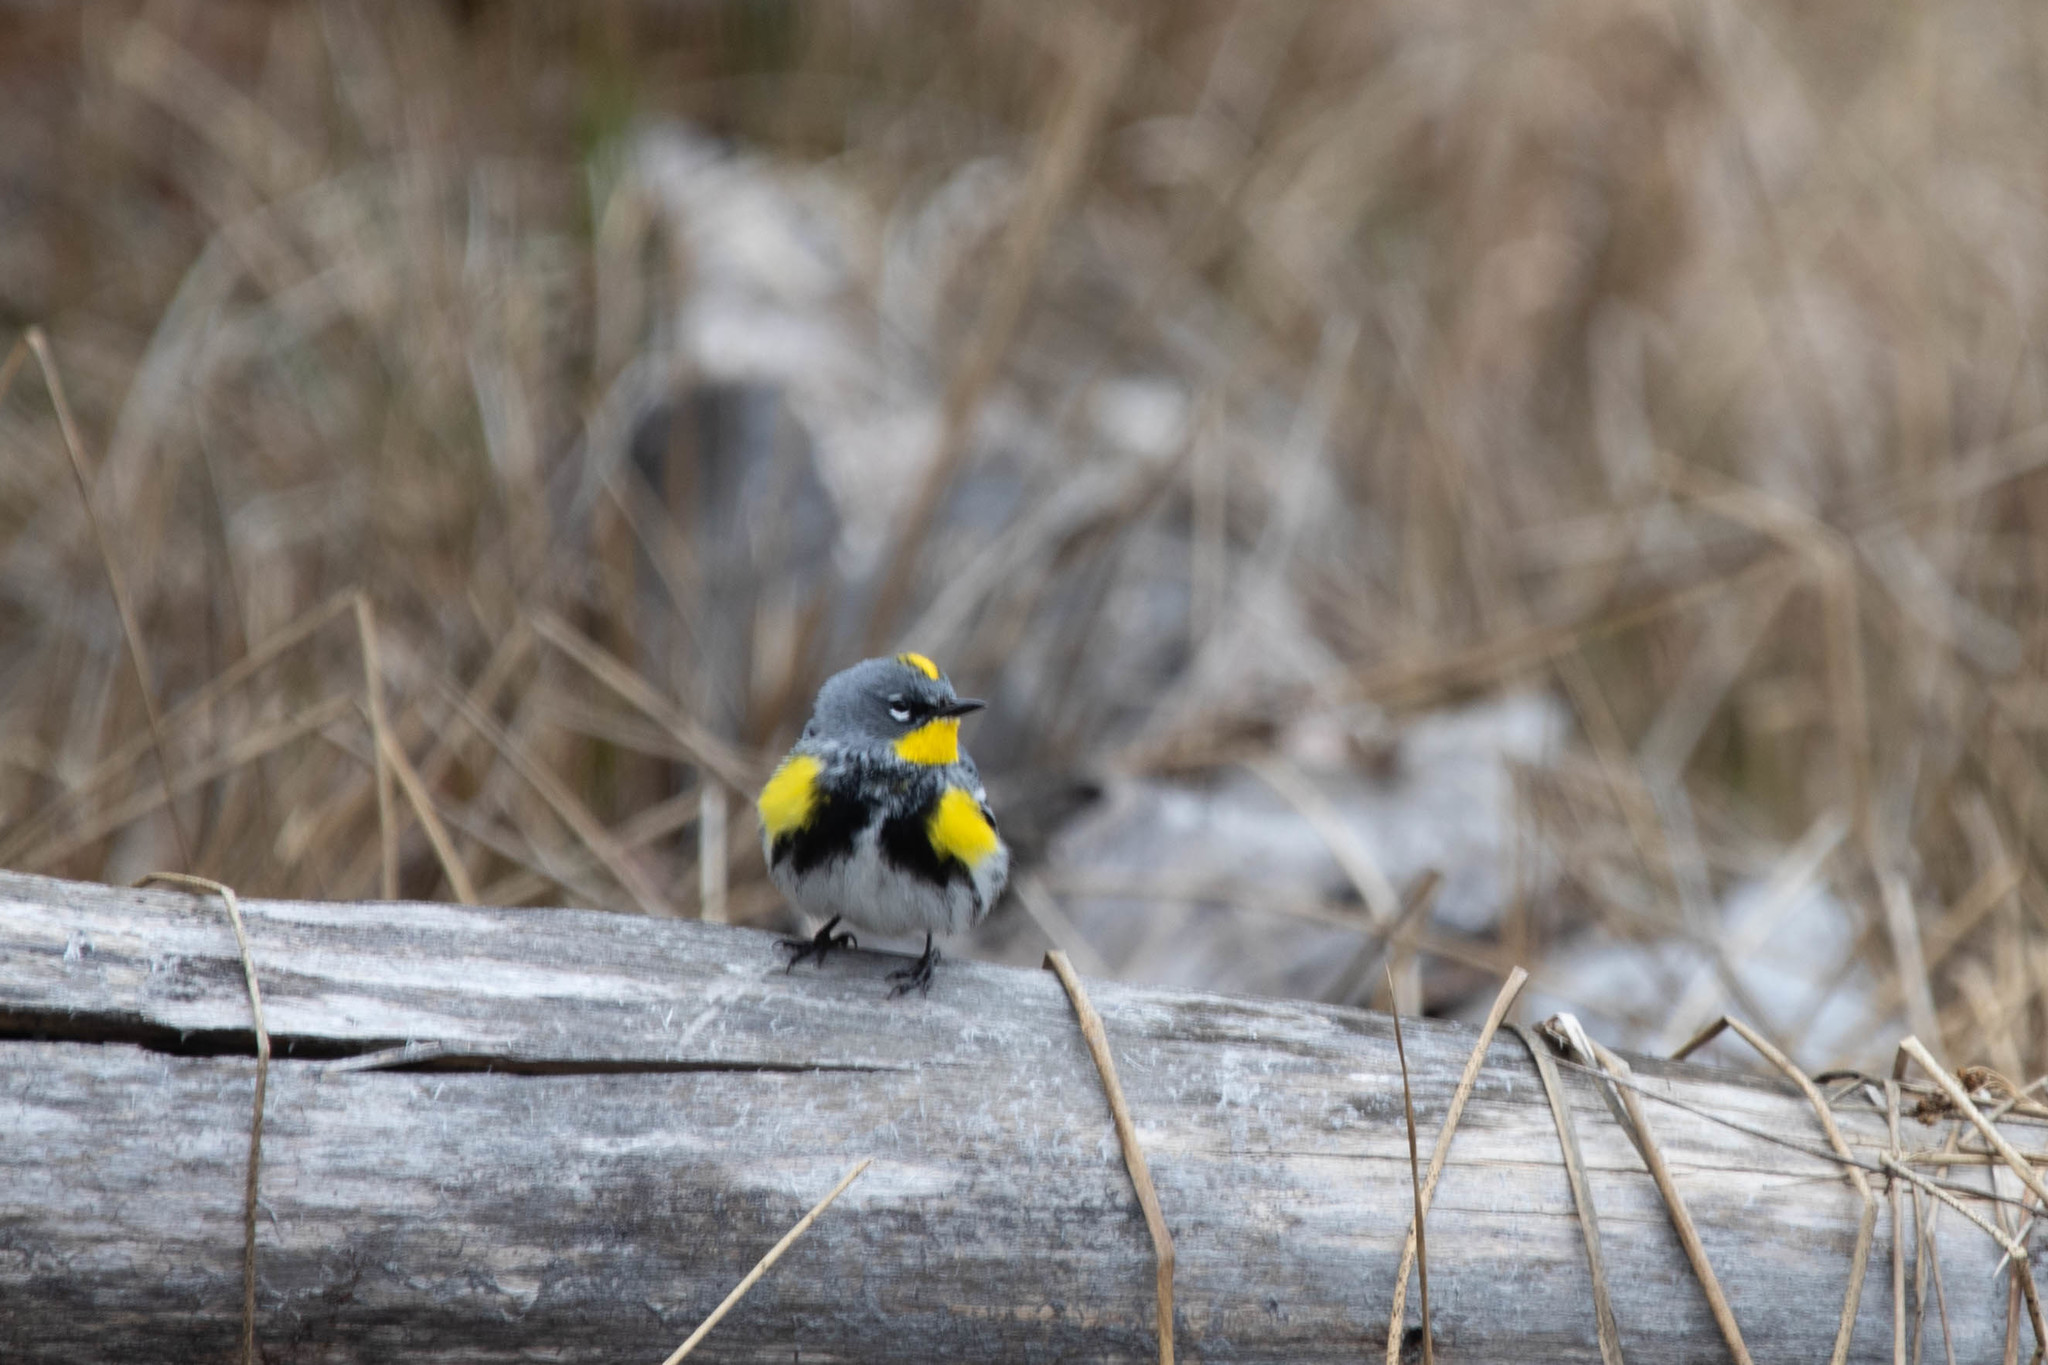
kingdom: Animalia
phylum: Chordata
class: Aves
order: Passeriformes
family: Parulidae
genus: Setophaga
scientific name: Setophaga auduboni
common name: Audubon's warbler
